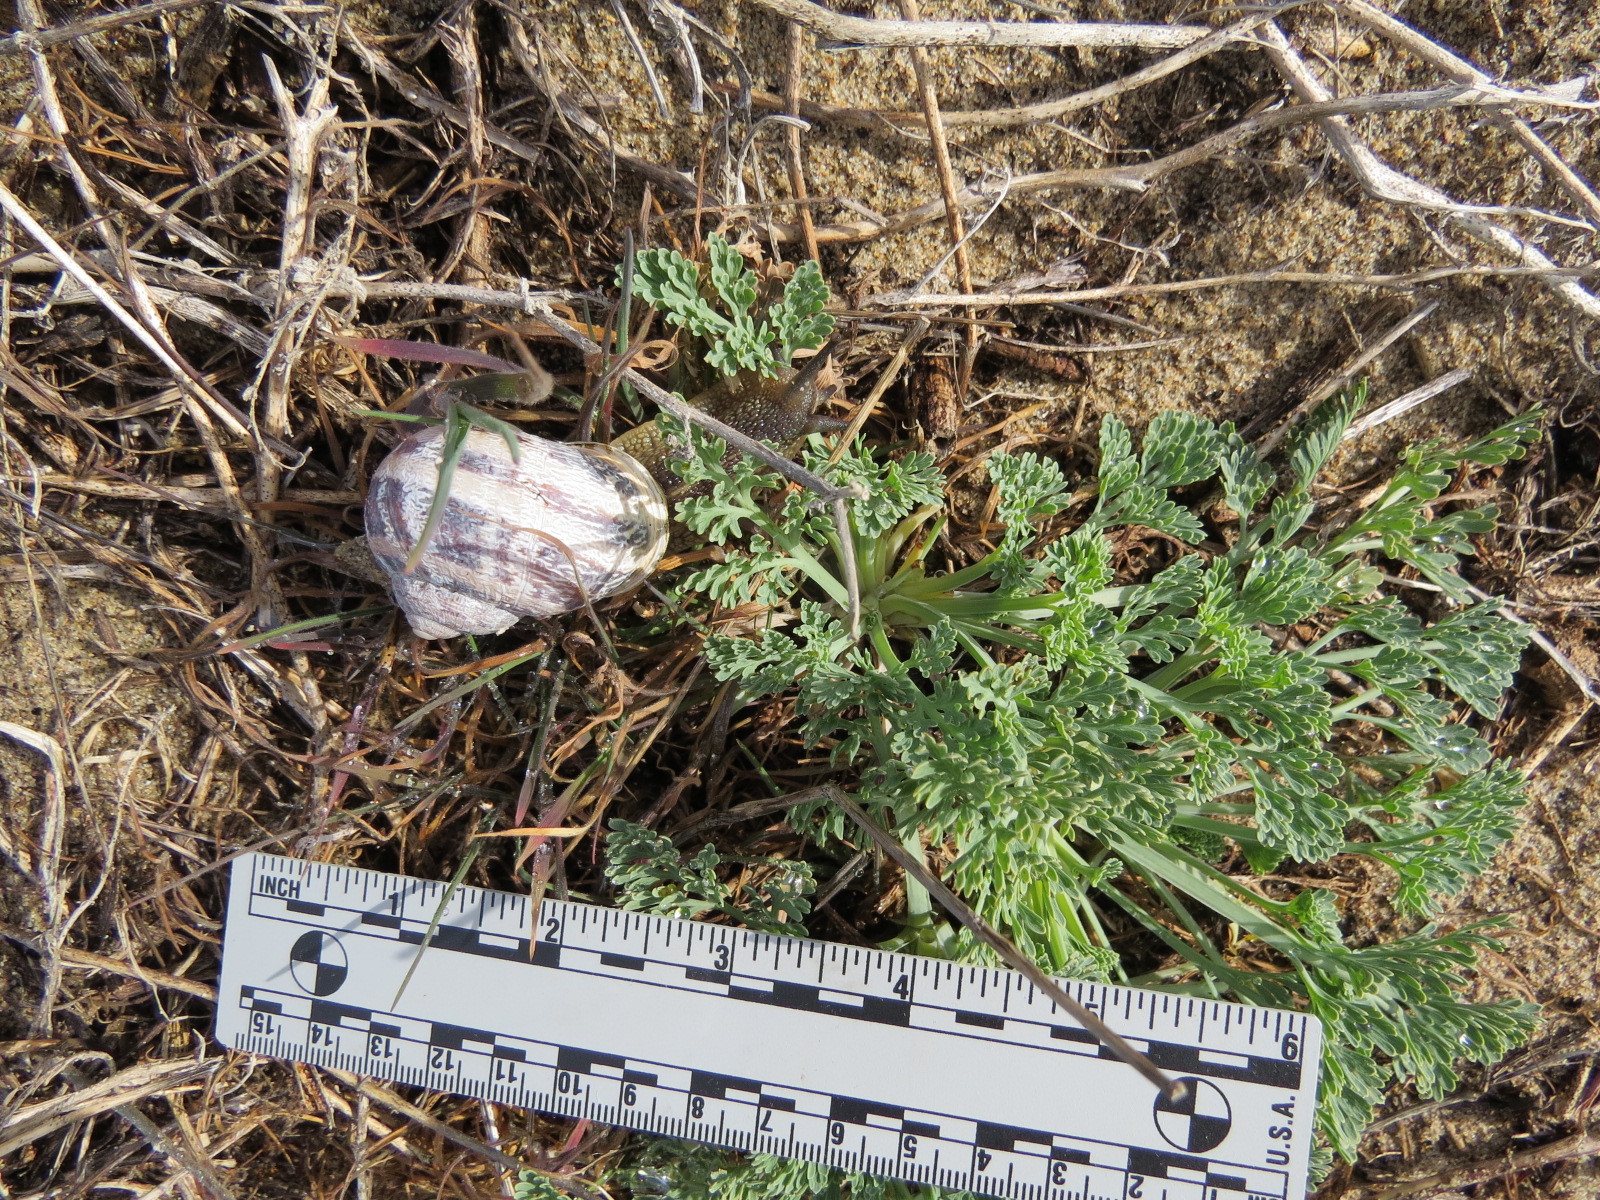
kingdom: Animalia
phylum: Mollusca
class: Gastropoda
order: Stylommatophora
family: Helicidae
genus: Cornu
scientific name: Cornu aspersum
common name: Brown garden snail
